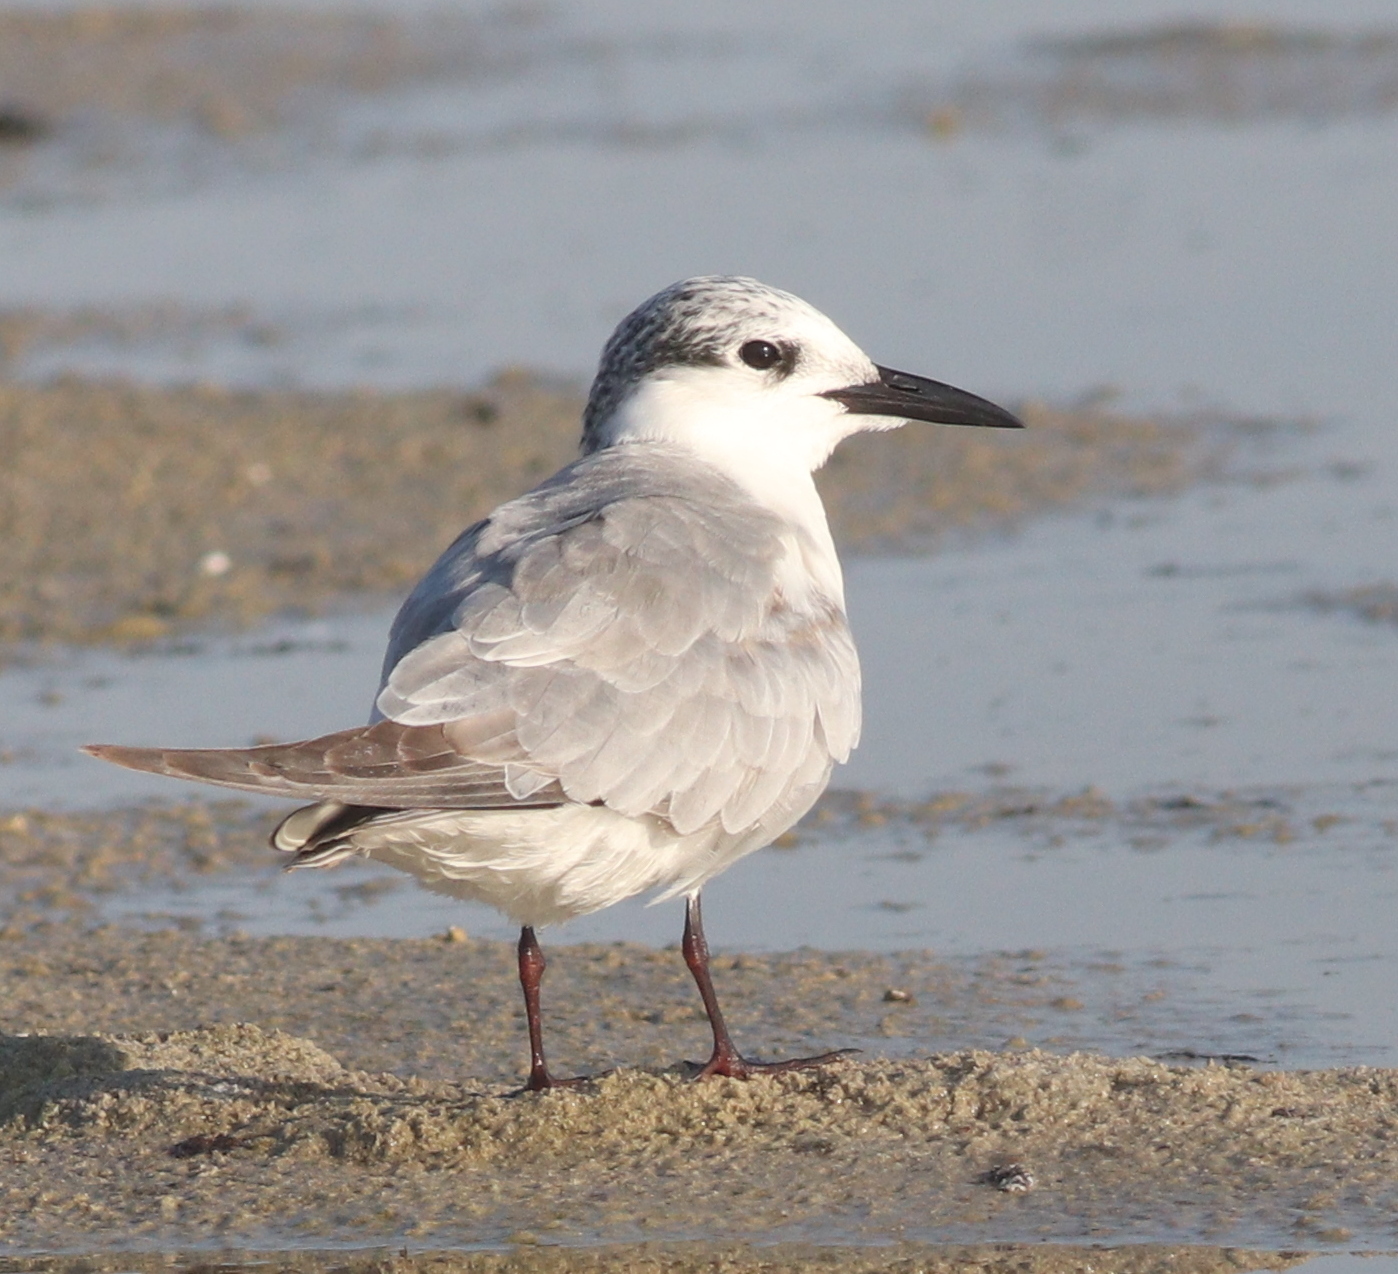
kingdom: Animalia
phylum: Chordata
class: Aves
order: Charadriiformes
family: Laridae
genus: Chlidonias
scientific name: Chlidonias hybrida
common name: Whiskered tern
